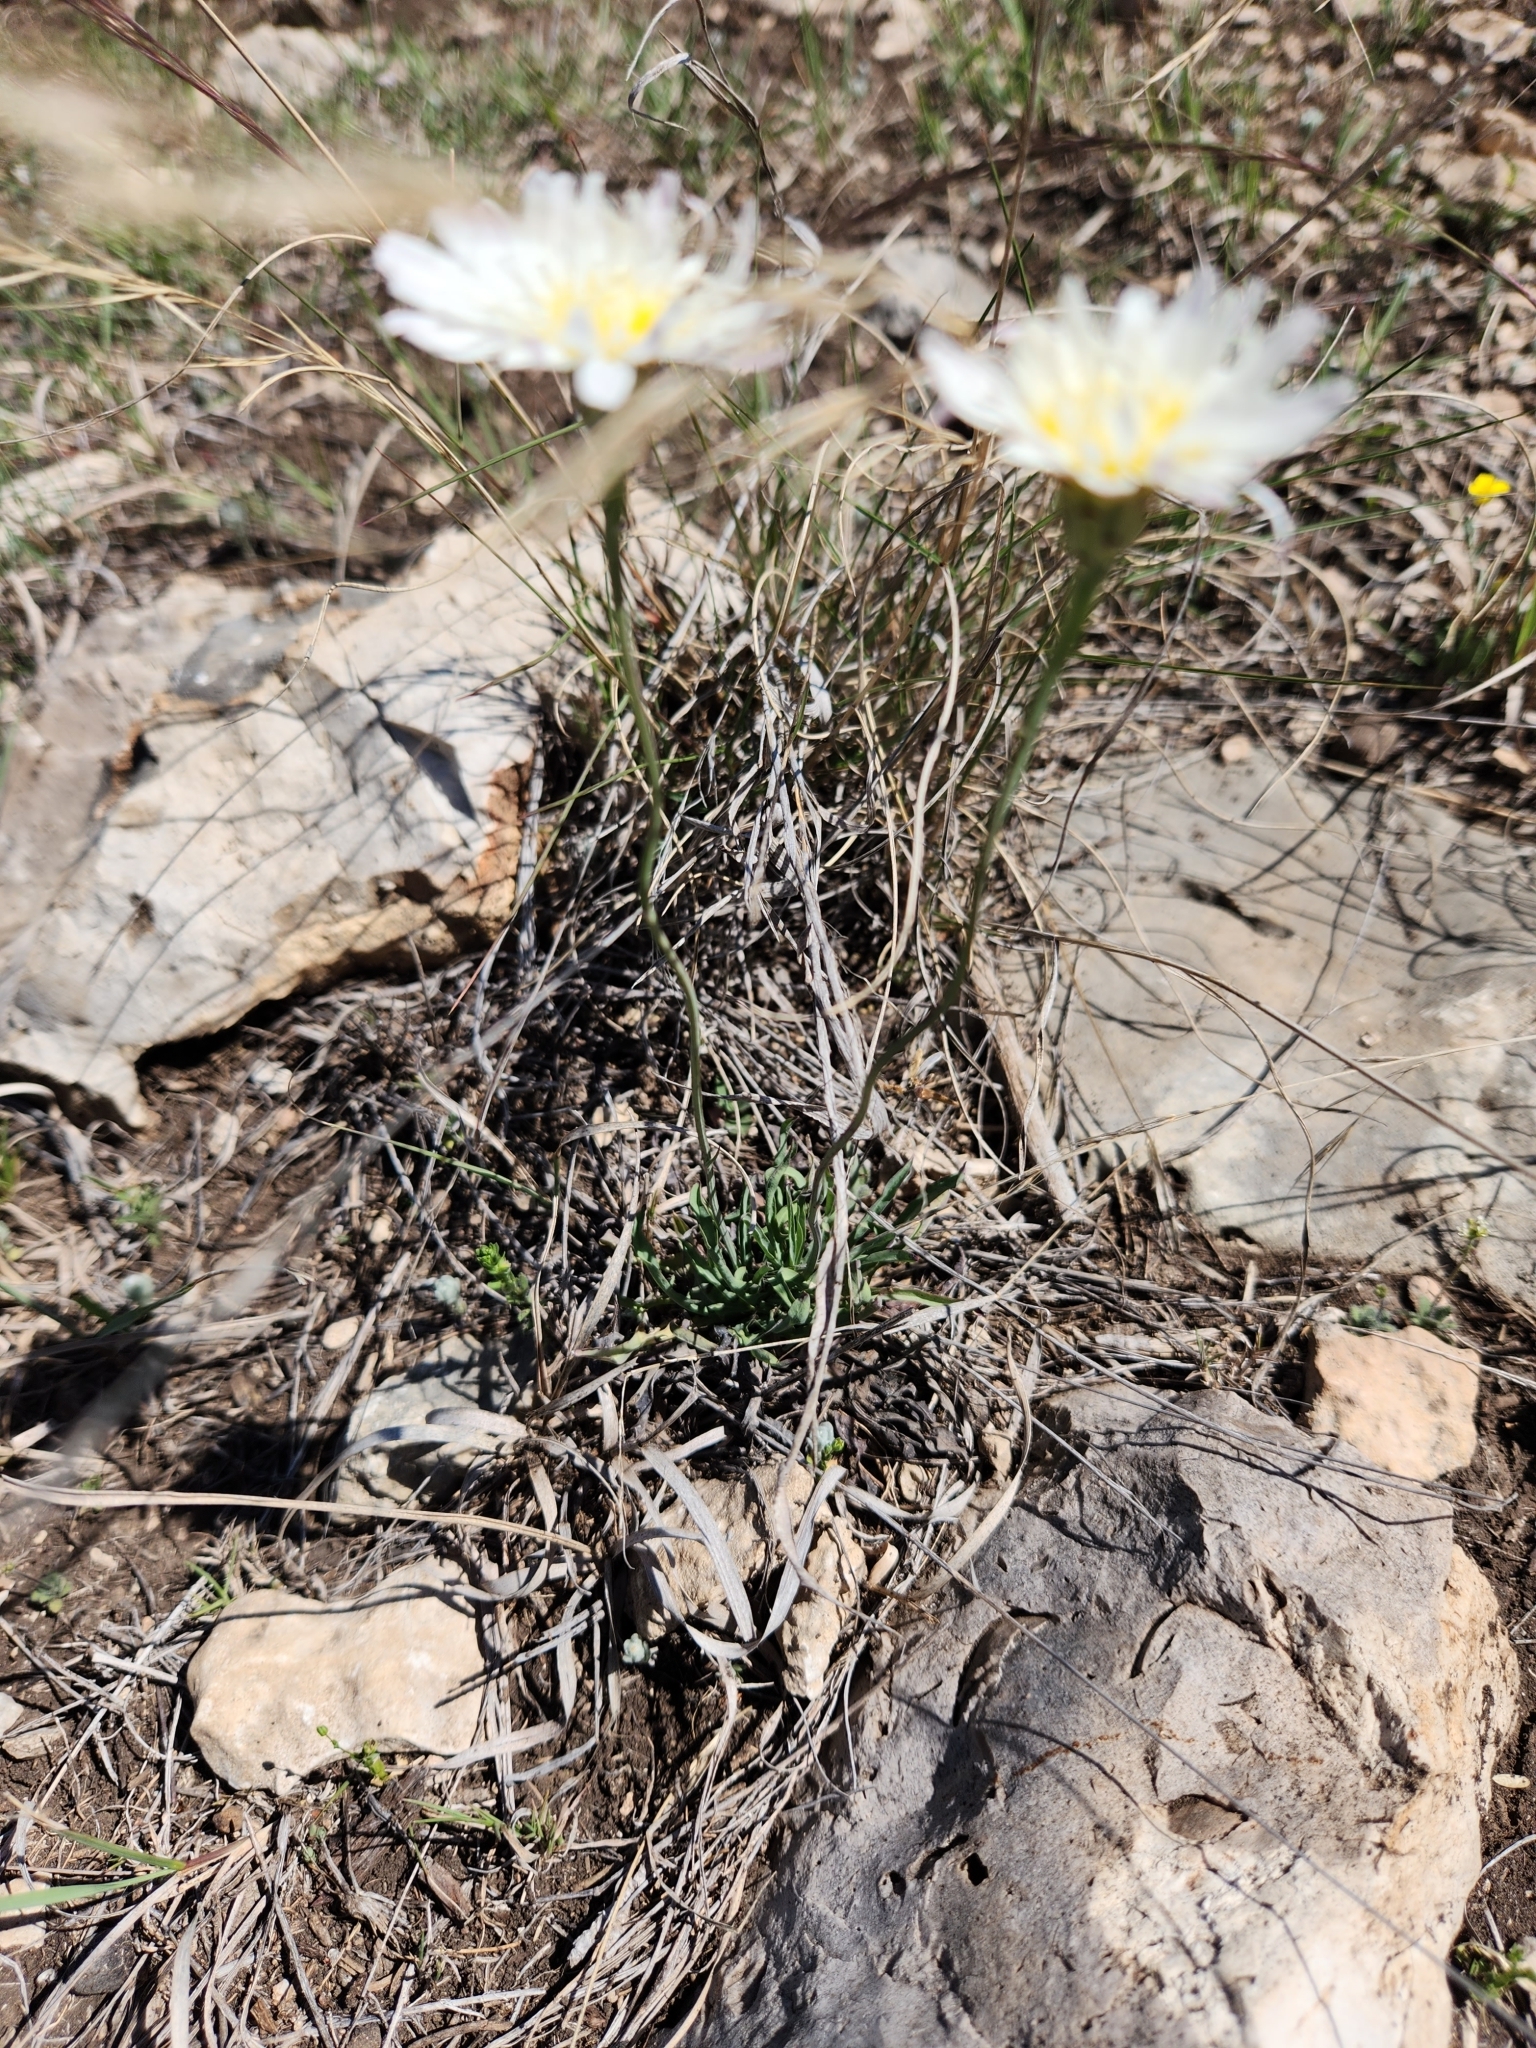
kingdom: Plantae
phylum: Tracheophyta
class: Magnoliopsida
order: Asterales
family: Asteraceae
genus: Pinaropappus
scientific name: Pinaropappus roseus
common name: Rock-lettuce
